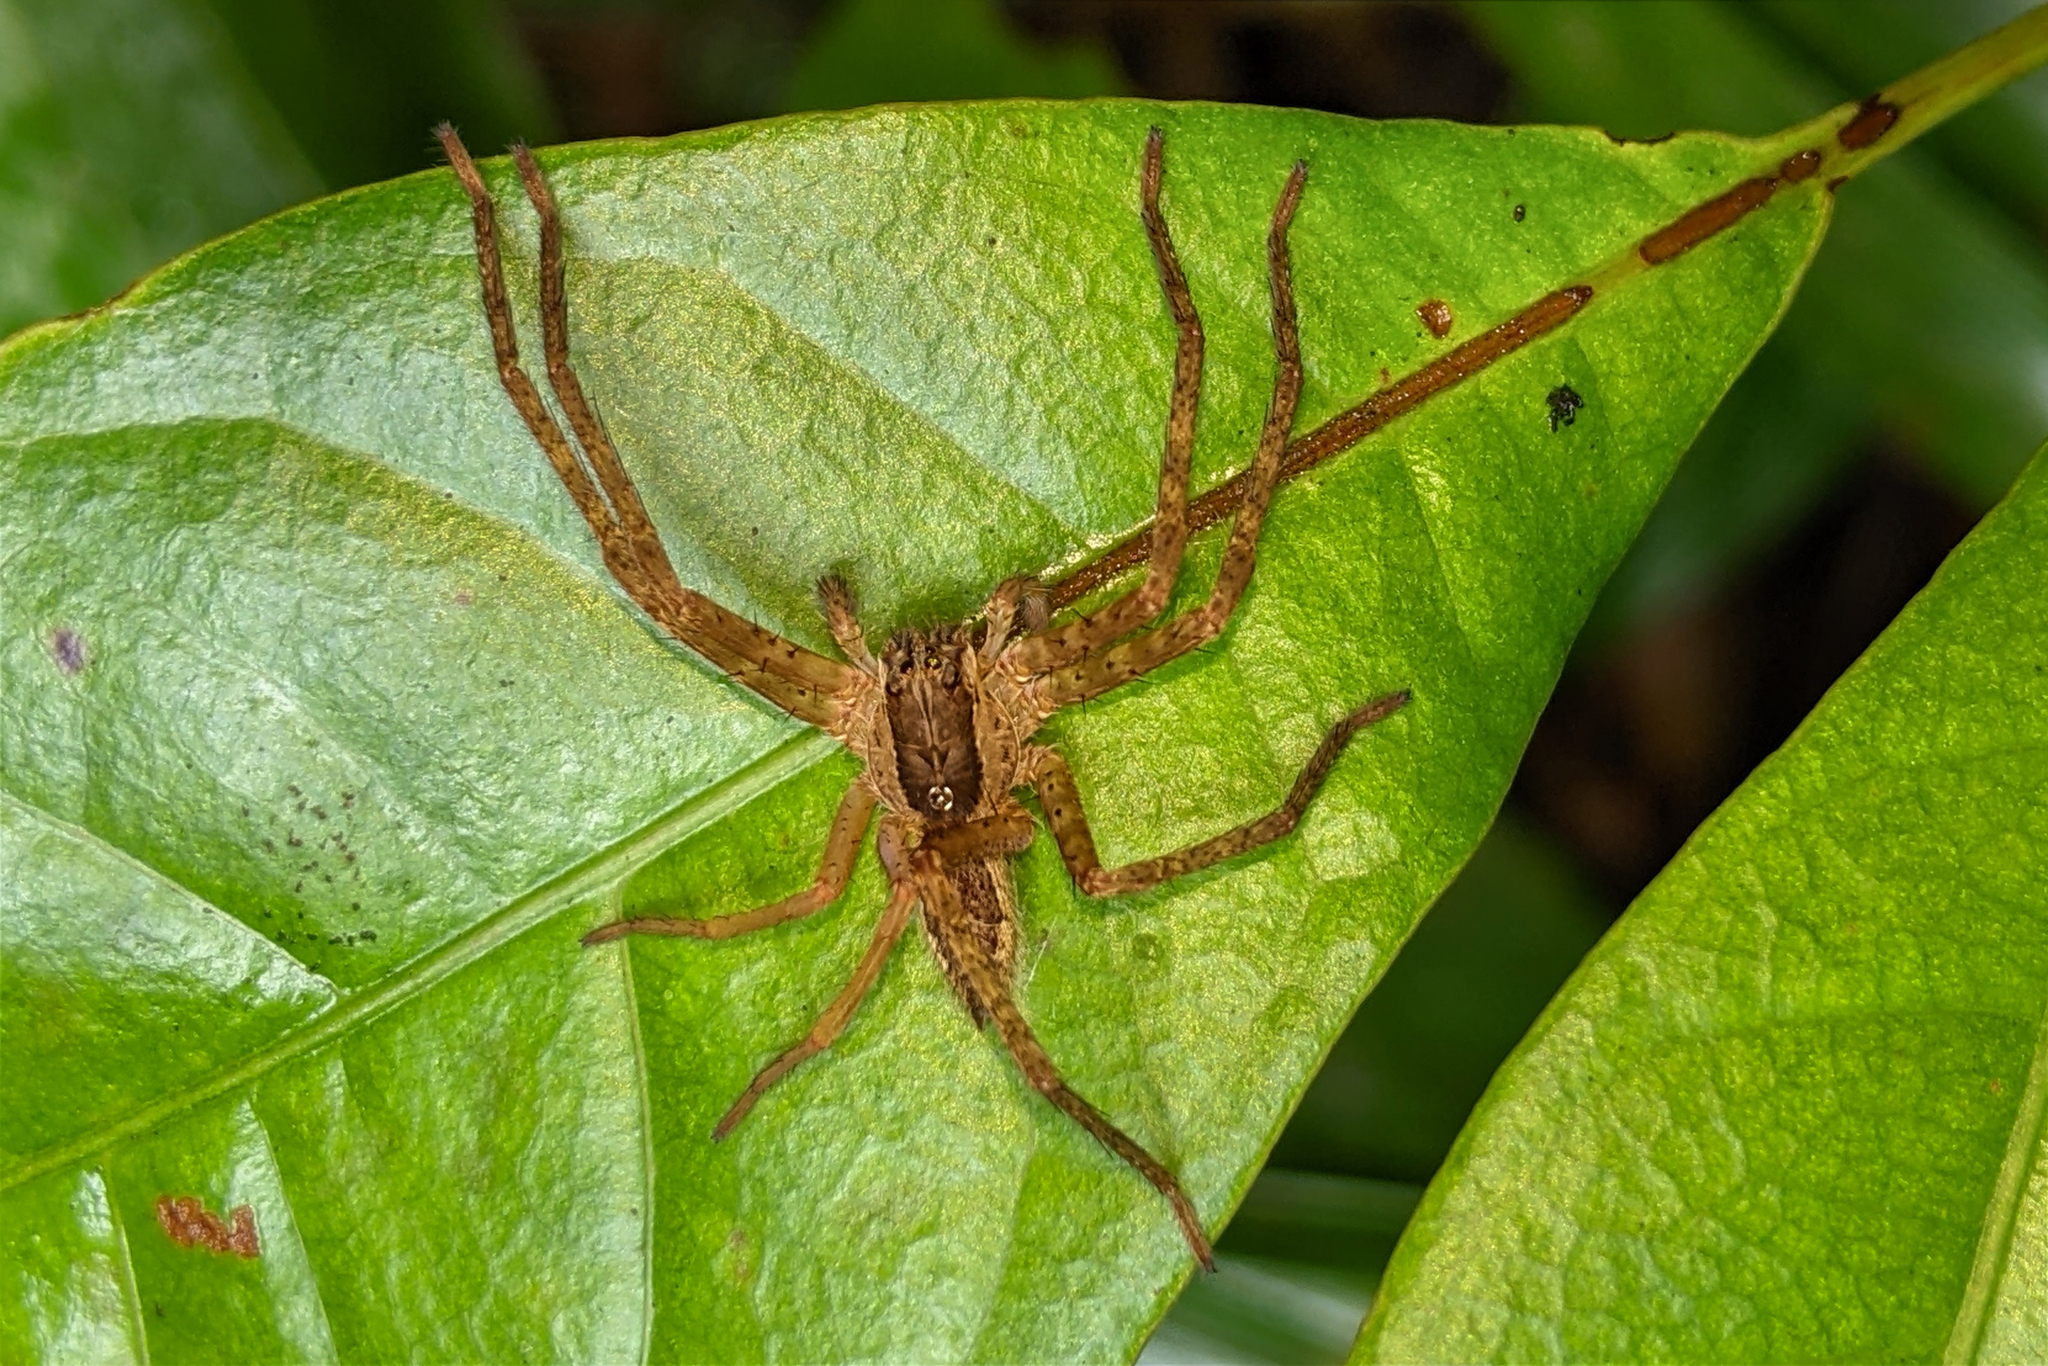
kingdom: Animalia
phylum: Arthropoda
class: Arachnida
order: Araneae
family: Trechaleidae
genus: Cupiennius
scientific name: Cupiennius bimaculatus
